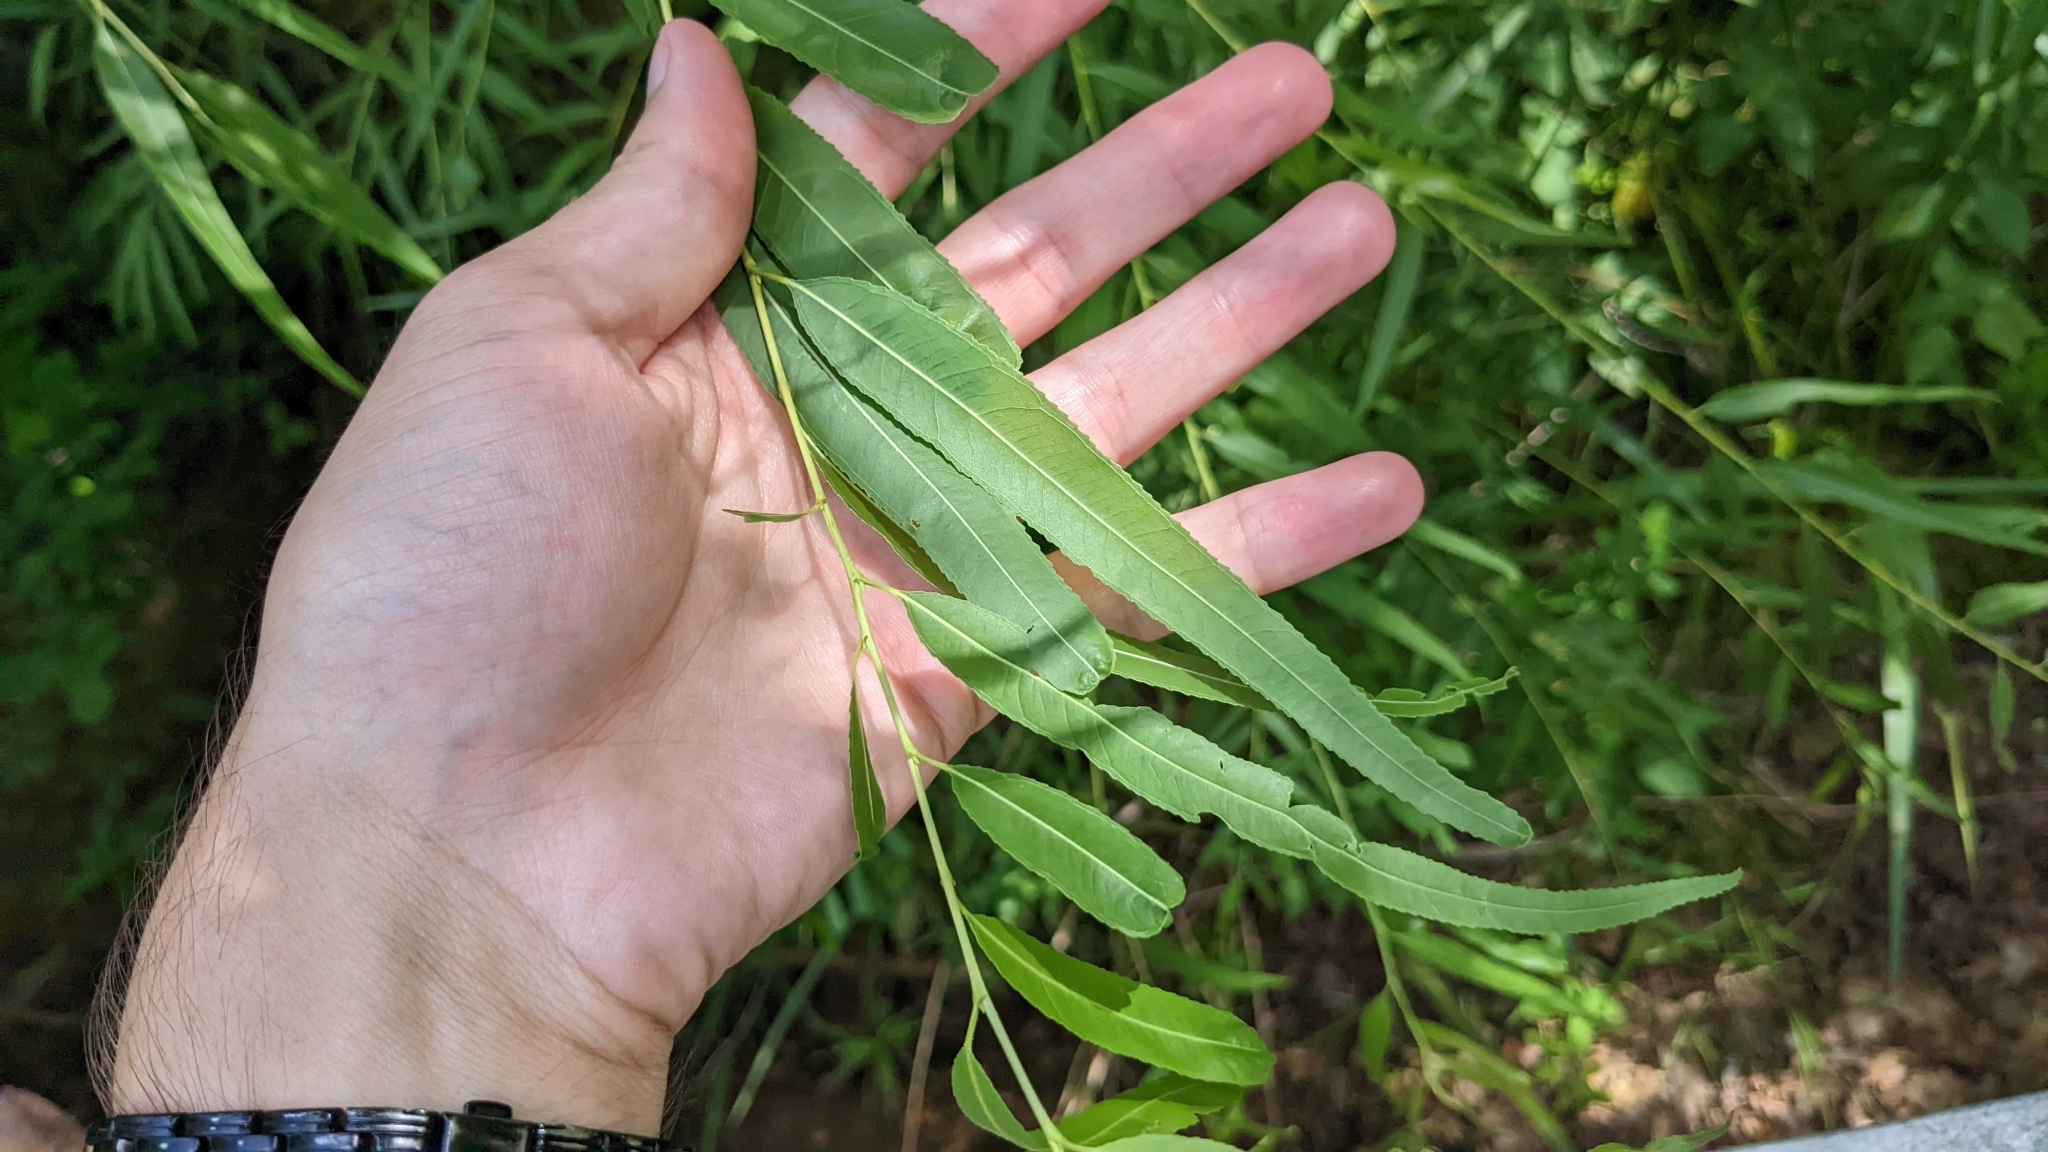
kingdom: Plantae
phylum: Tracheophyta
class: Magnoliopsida
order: Malpighiales
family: Salicaceae
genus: Salix
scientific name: Salix nigra
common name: Black willow
